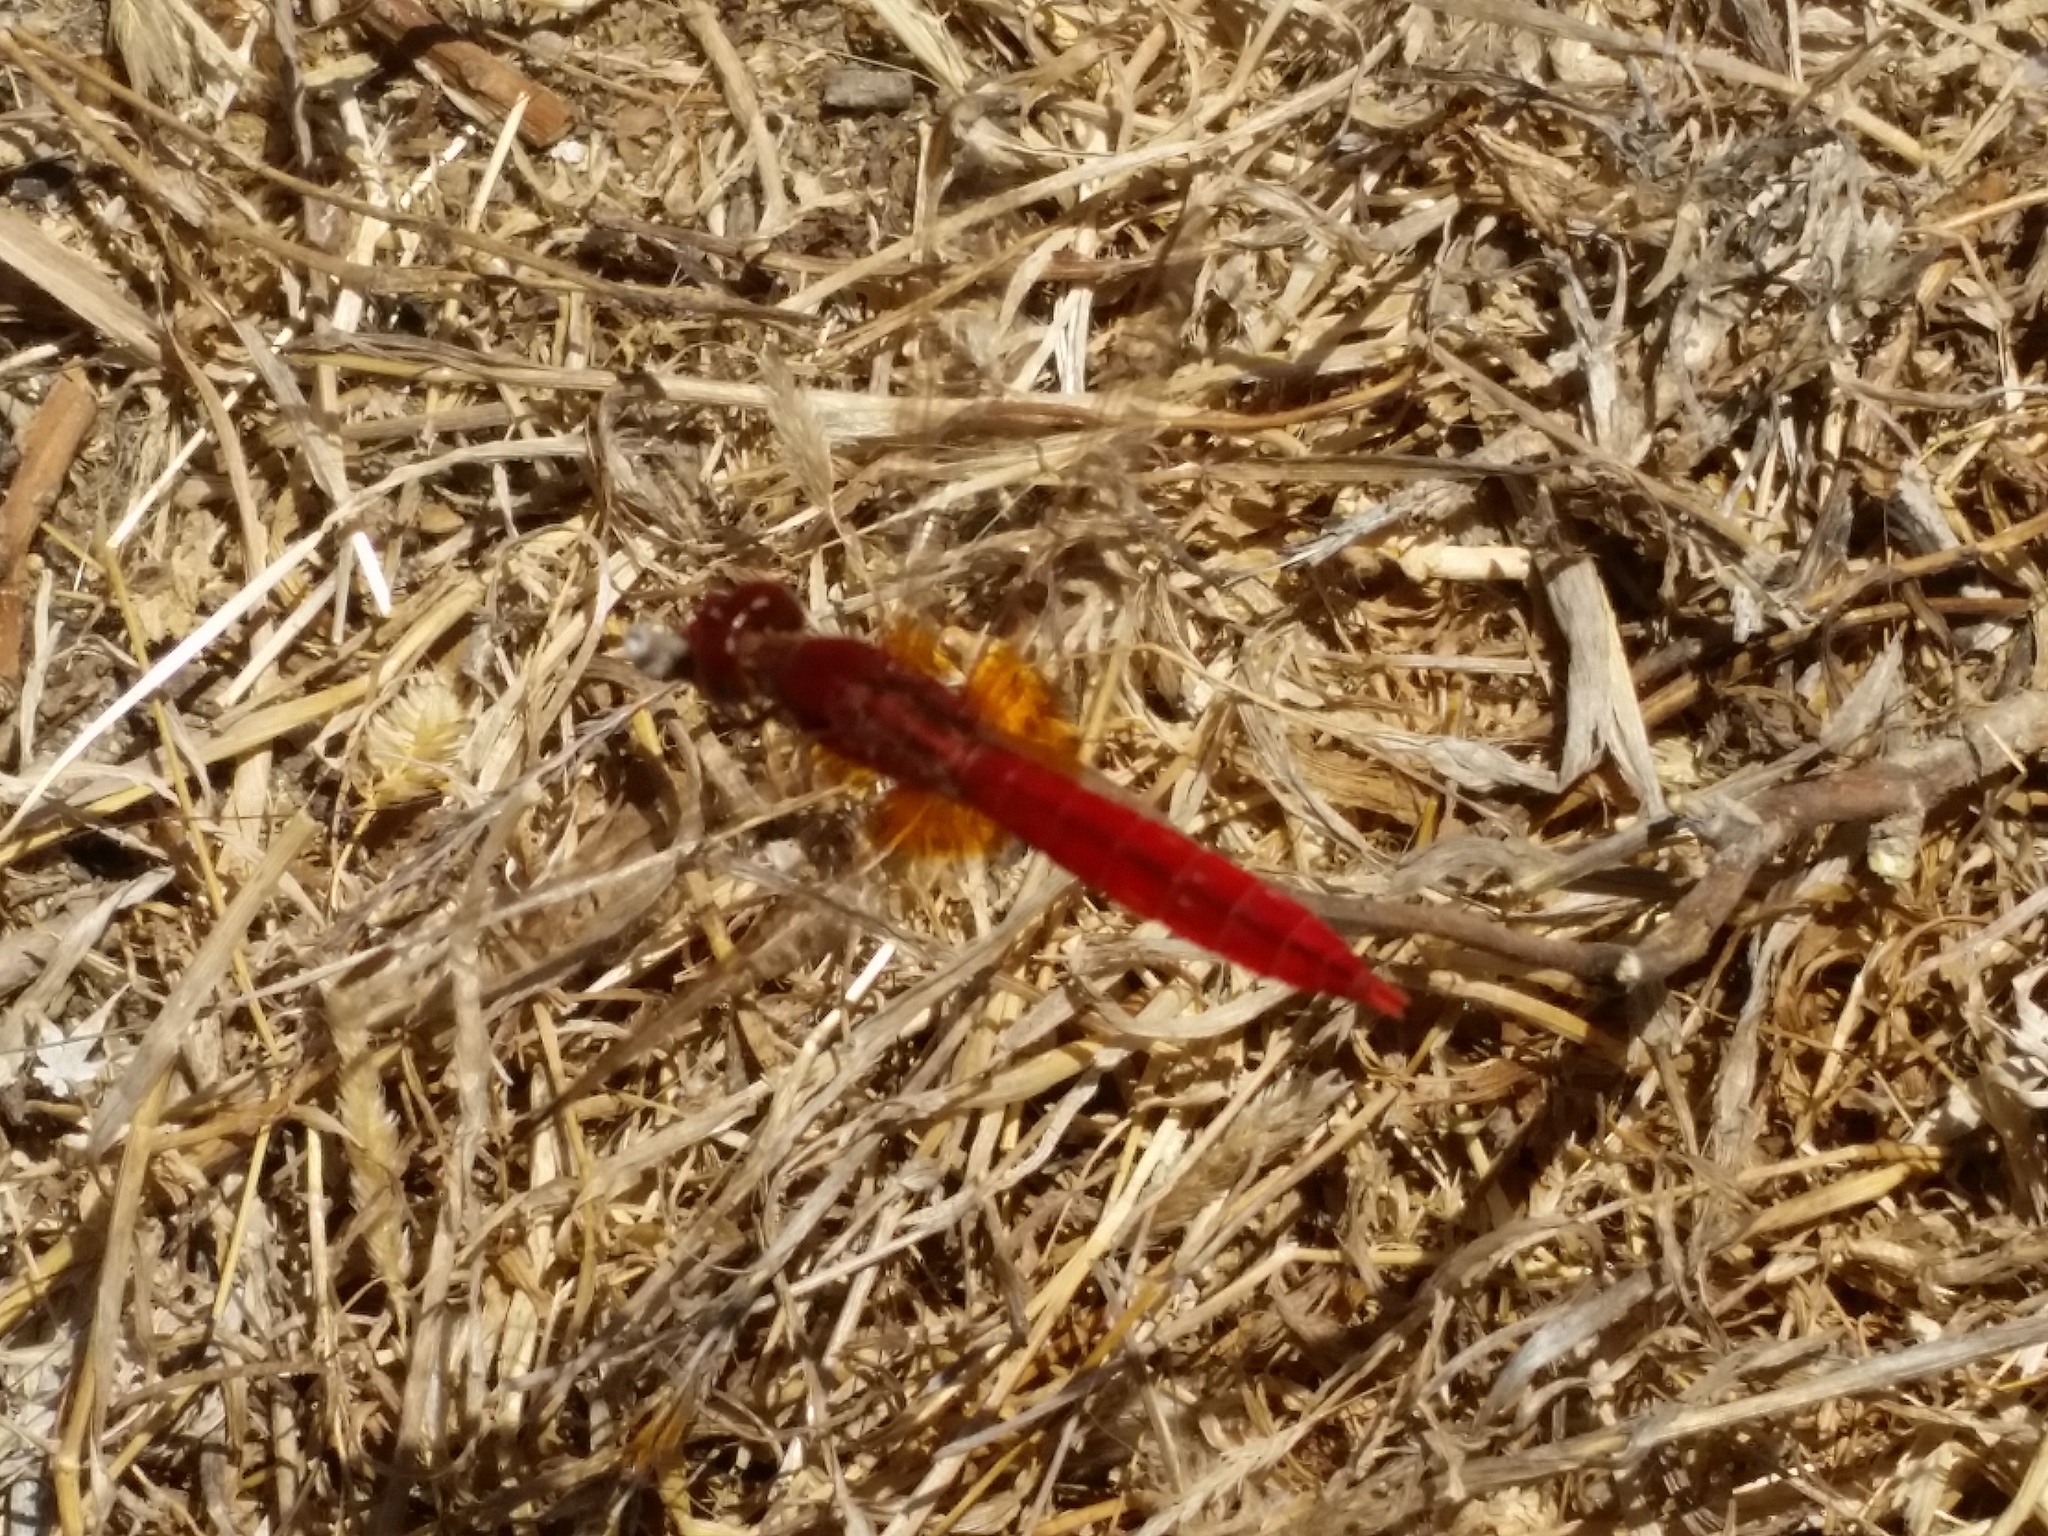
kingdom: Animalia
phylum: Arthropoda
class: Insecta
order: Odonata
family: Libellulidae
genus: Crocothemis
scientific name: Crocothemis erythraea
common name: Scarlet dragonfly
